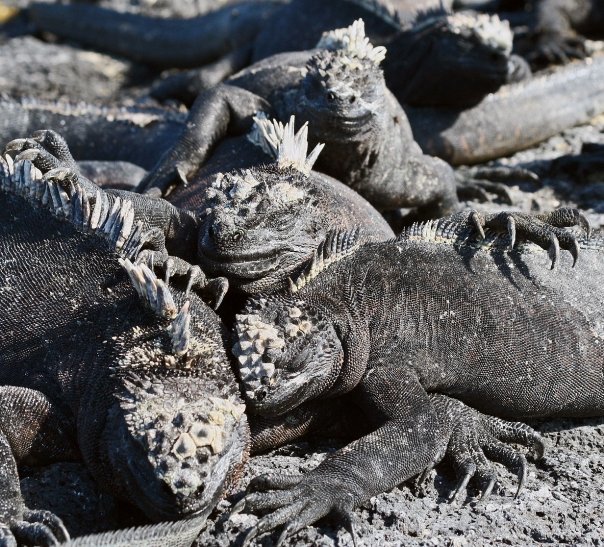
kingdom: Animalia
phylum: Chordata
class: Squamata
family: Iguanidae
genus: Amblyrhynchus
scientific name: Amblyrhynchus cristatus
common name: Marine iguana
